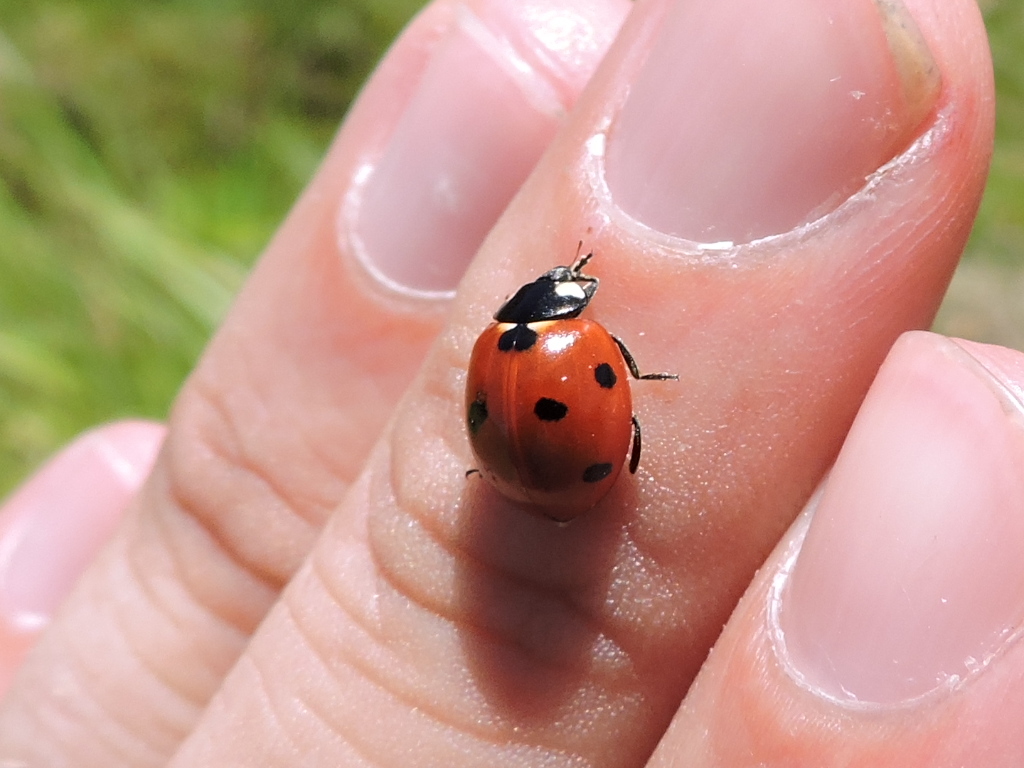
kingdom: Animalia
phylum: Arthropoda
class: Insecta
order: Coleoptera
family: Coccinellidae
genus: Coccinella
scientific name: Coccinella septempunctata
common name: Sevenspotted lady beetle
